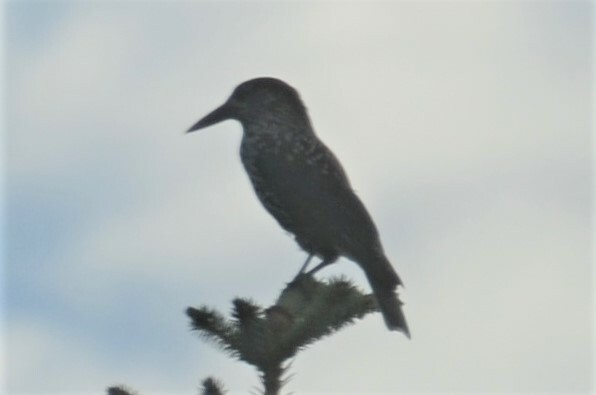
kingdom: Animalia
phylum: Chordata
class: Aves
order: Passeriformes
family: Corvidae
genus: Nucifraga
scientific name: Nucifraga caryocatactes
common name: Spotted nutcracker
